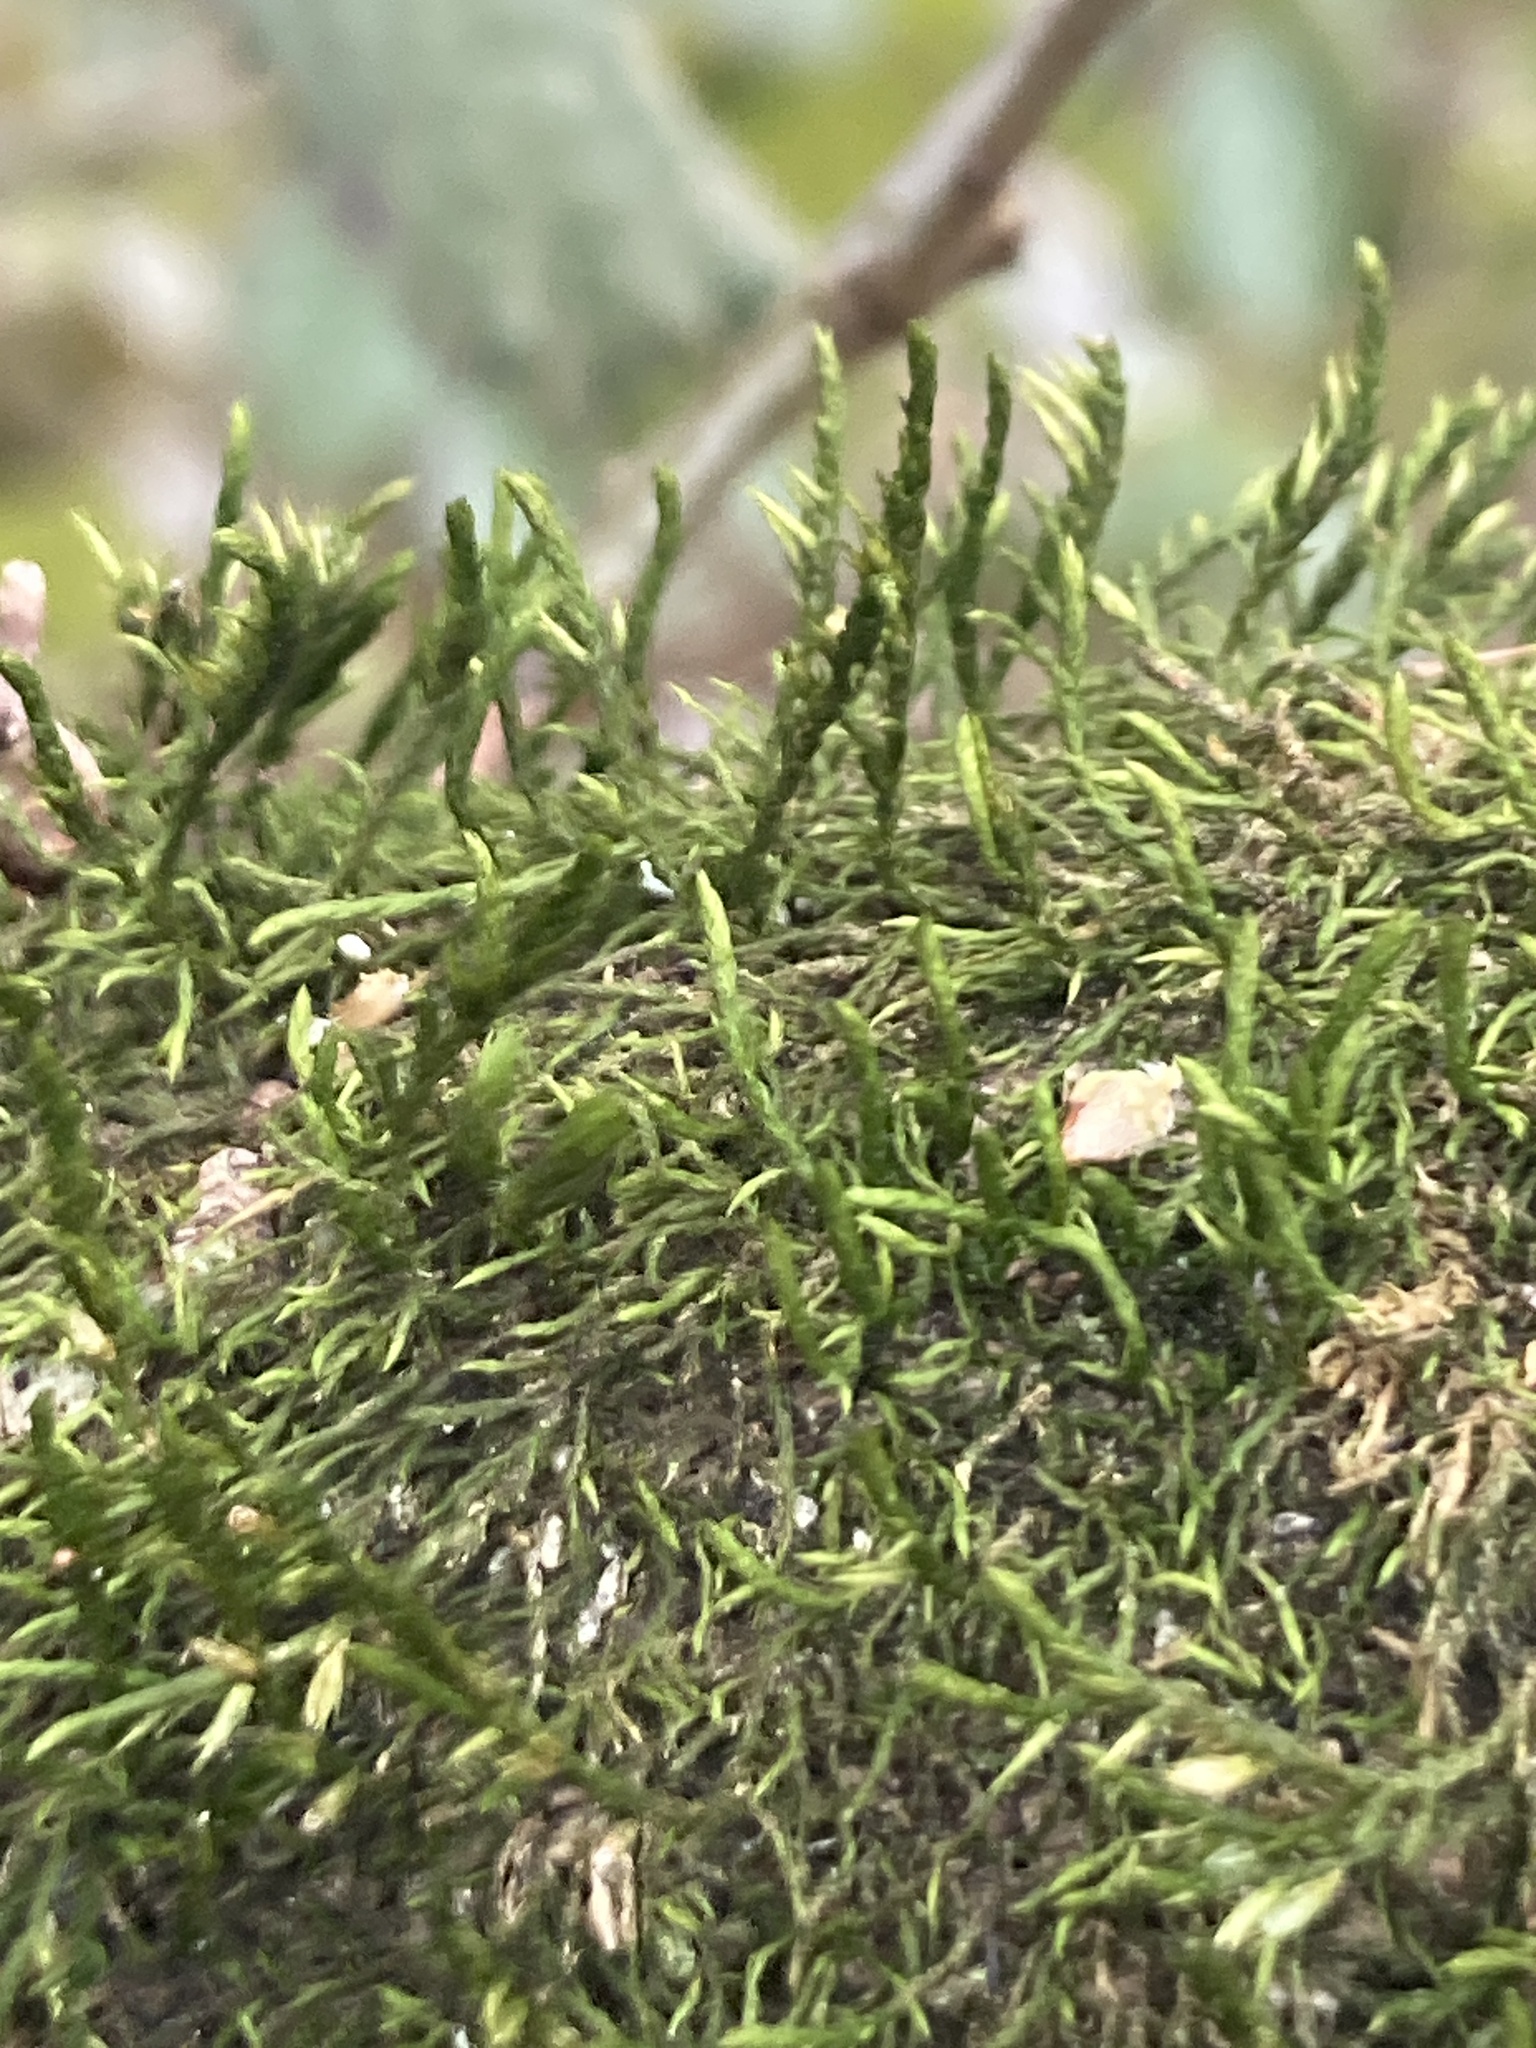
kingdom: Plantae
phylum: Bryophyta
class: Bryopsida
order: Hypnales
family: Cryphaeaceae
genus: Cryphaea
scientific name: Cryphaea heteromalla
